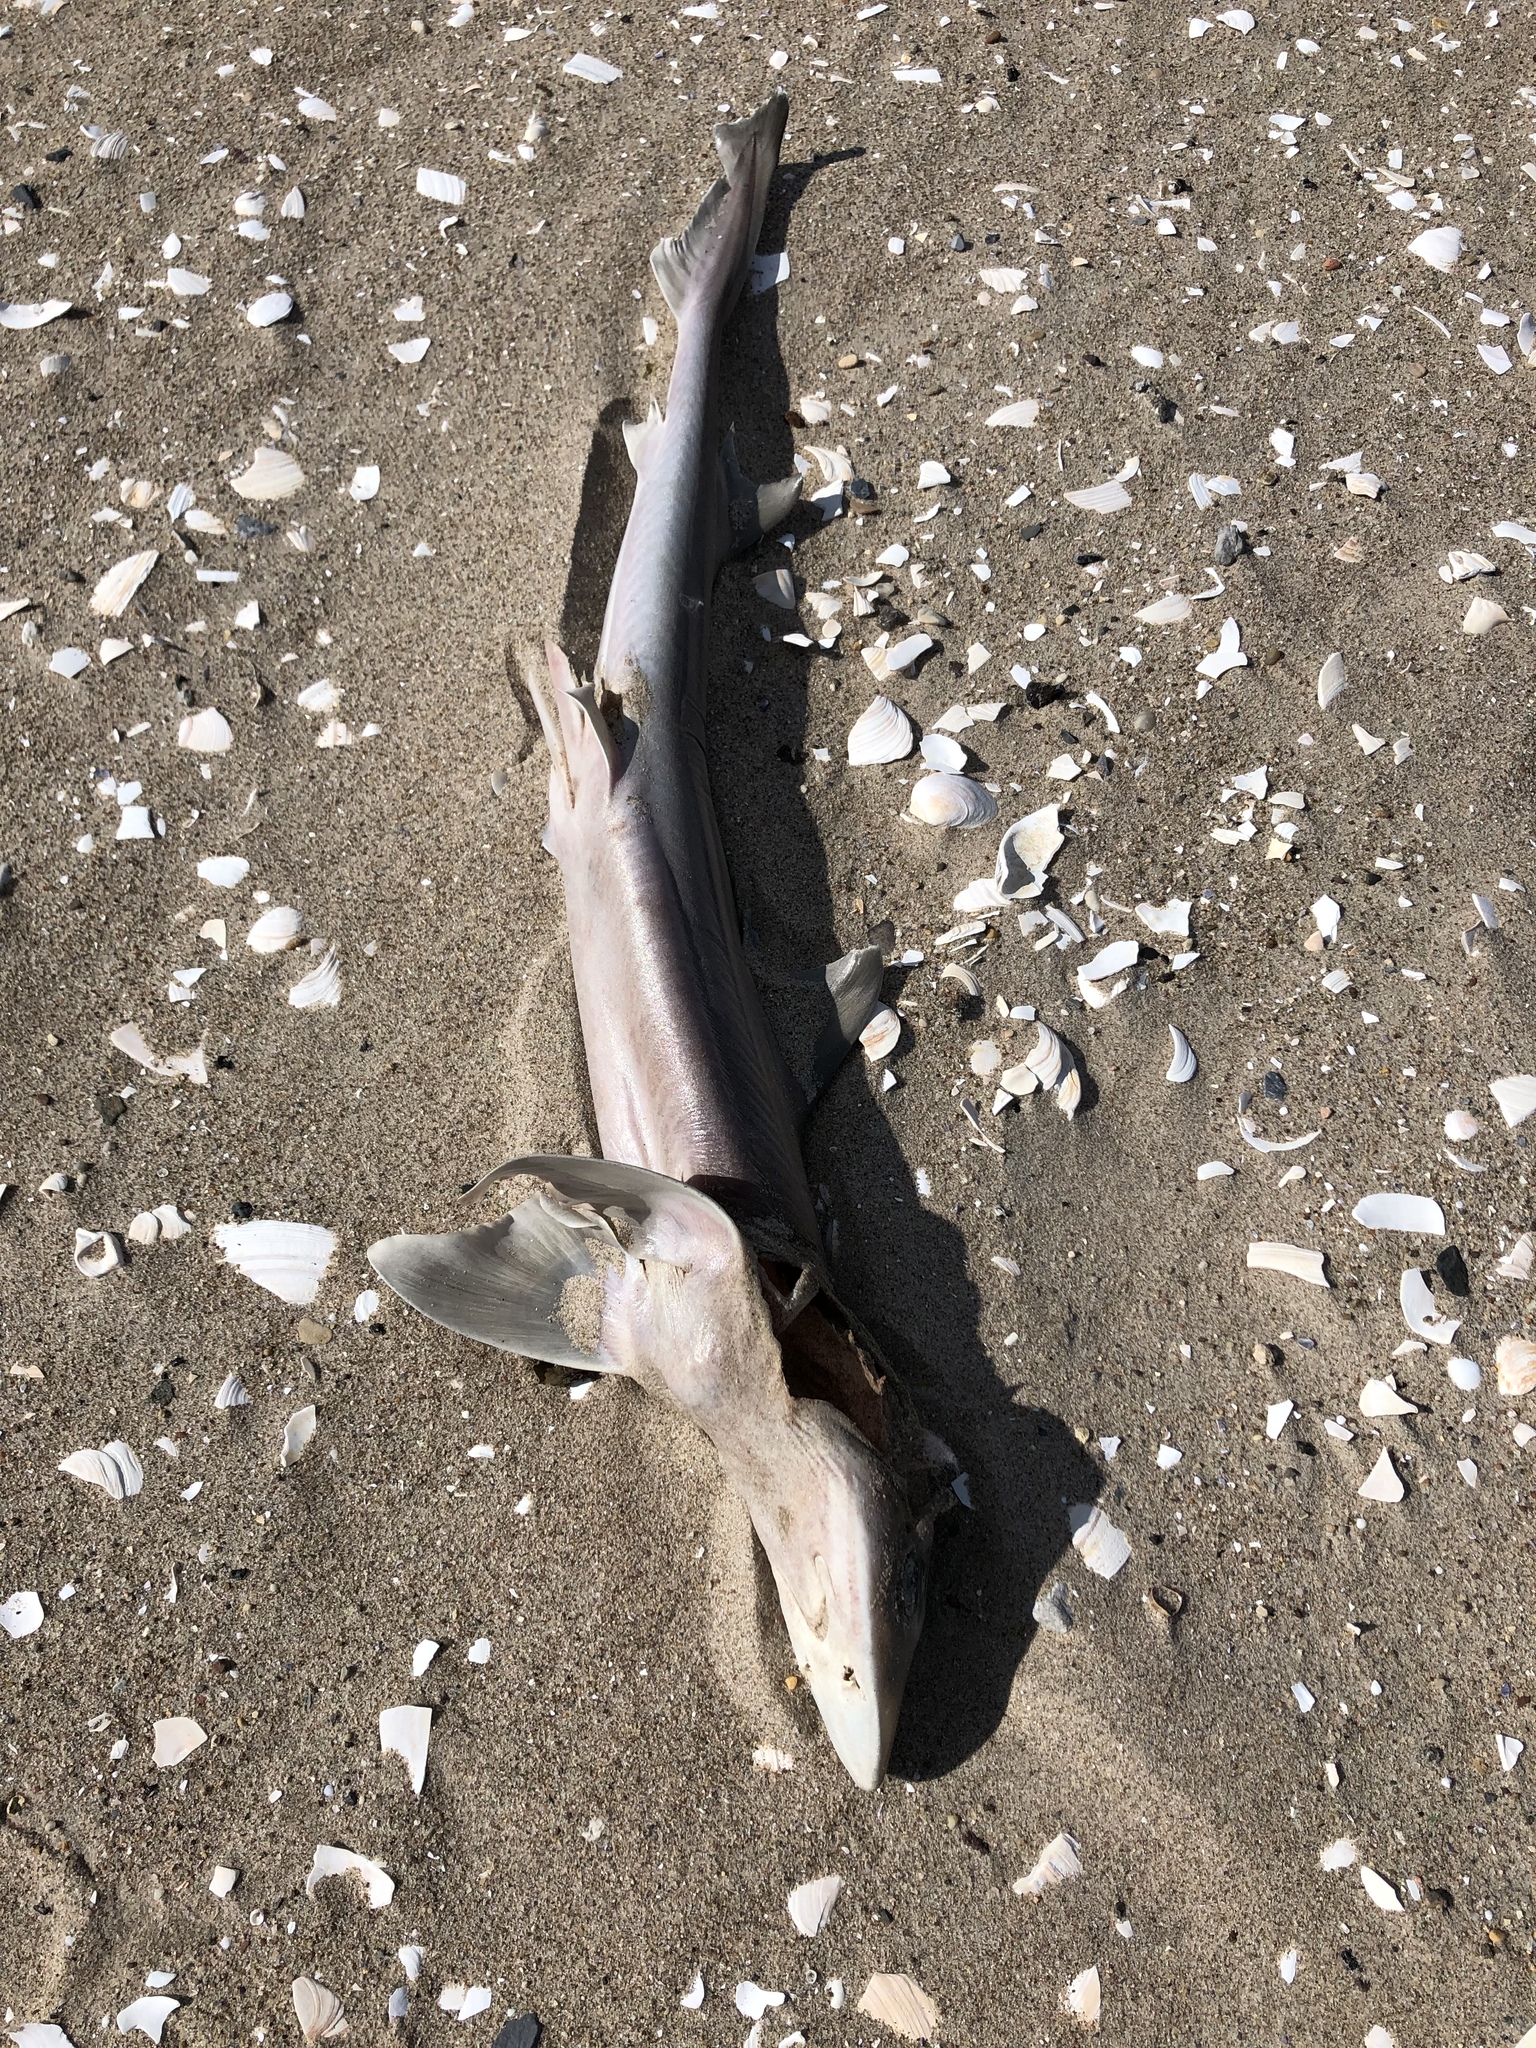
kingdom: Animalia
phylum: Chordata
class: Elasmobranchii
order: Carcharhiniformes
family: Triakidae
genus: Mustelus
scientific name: Mustelus canis
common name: Smooth dogfish
